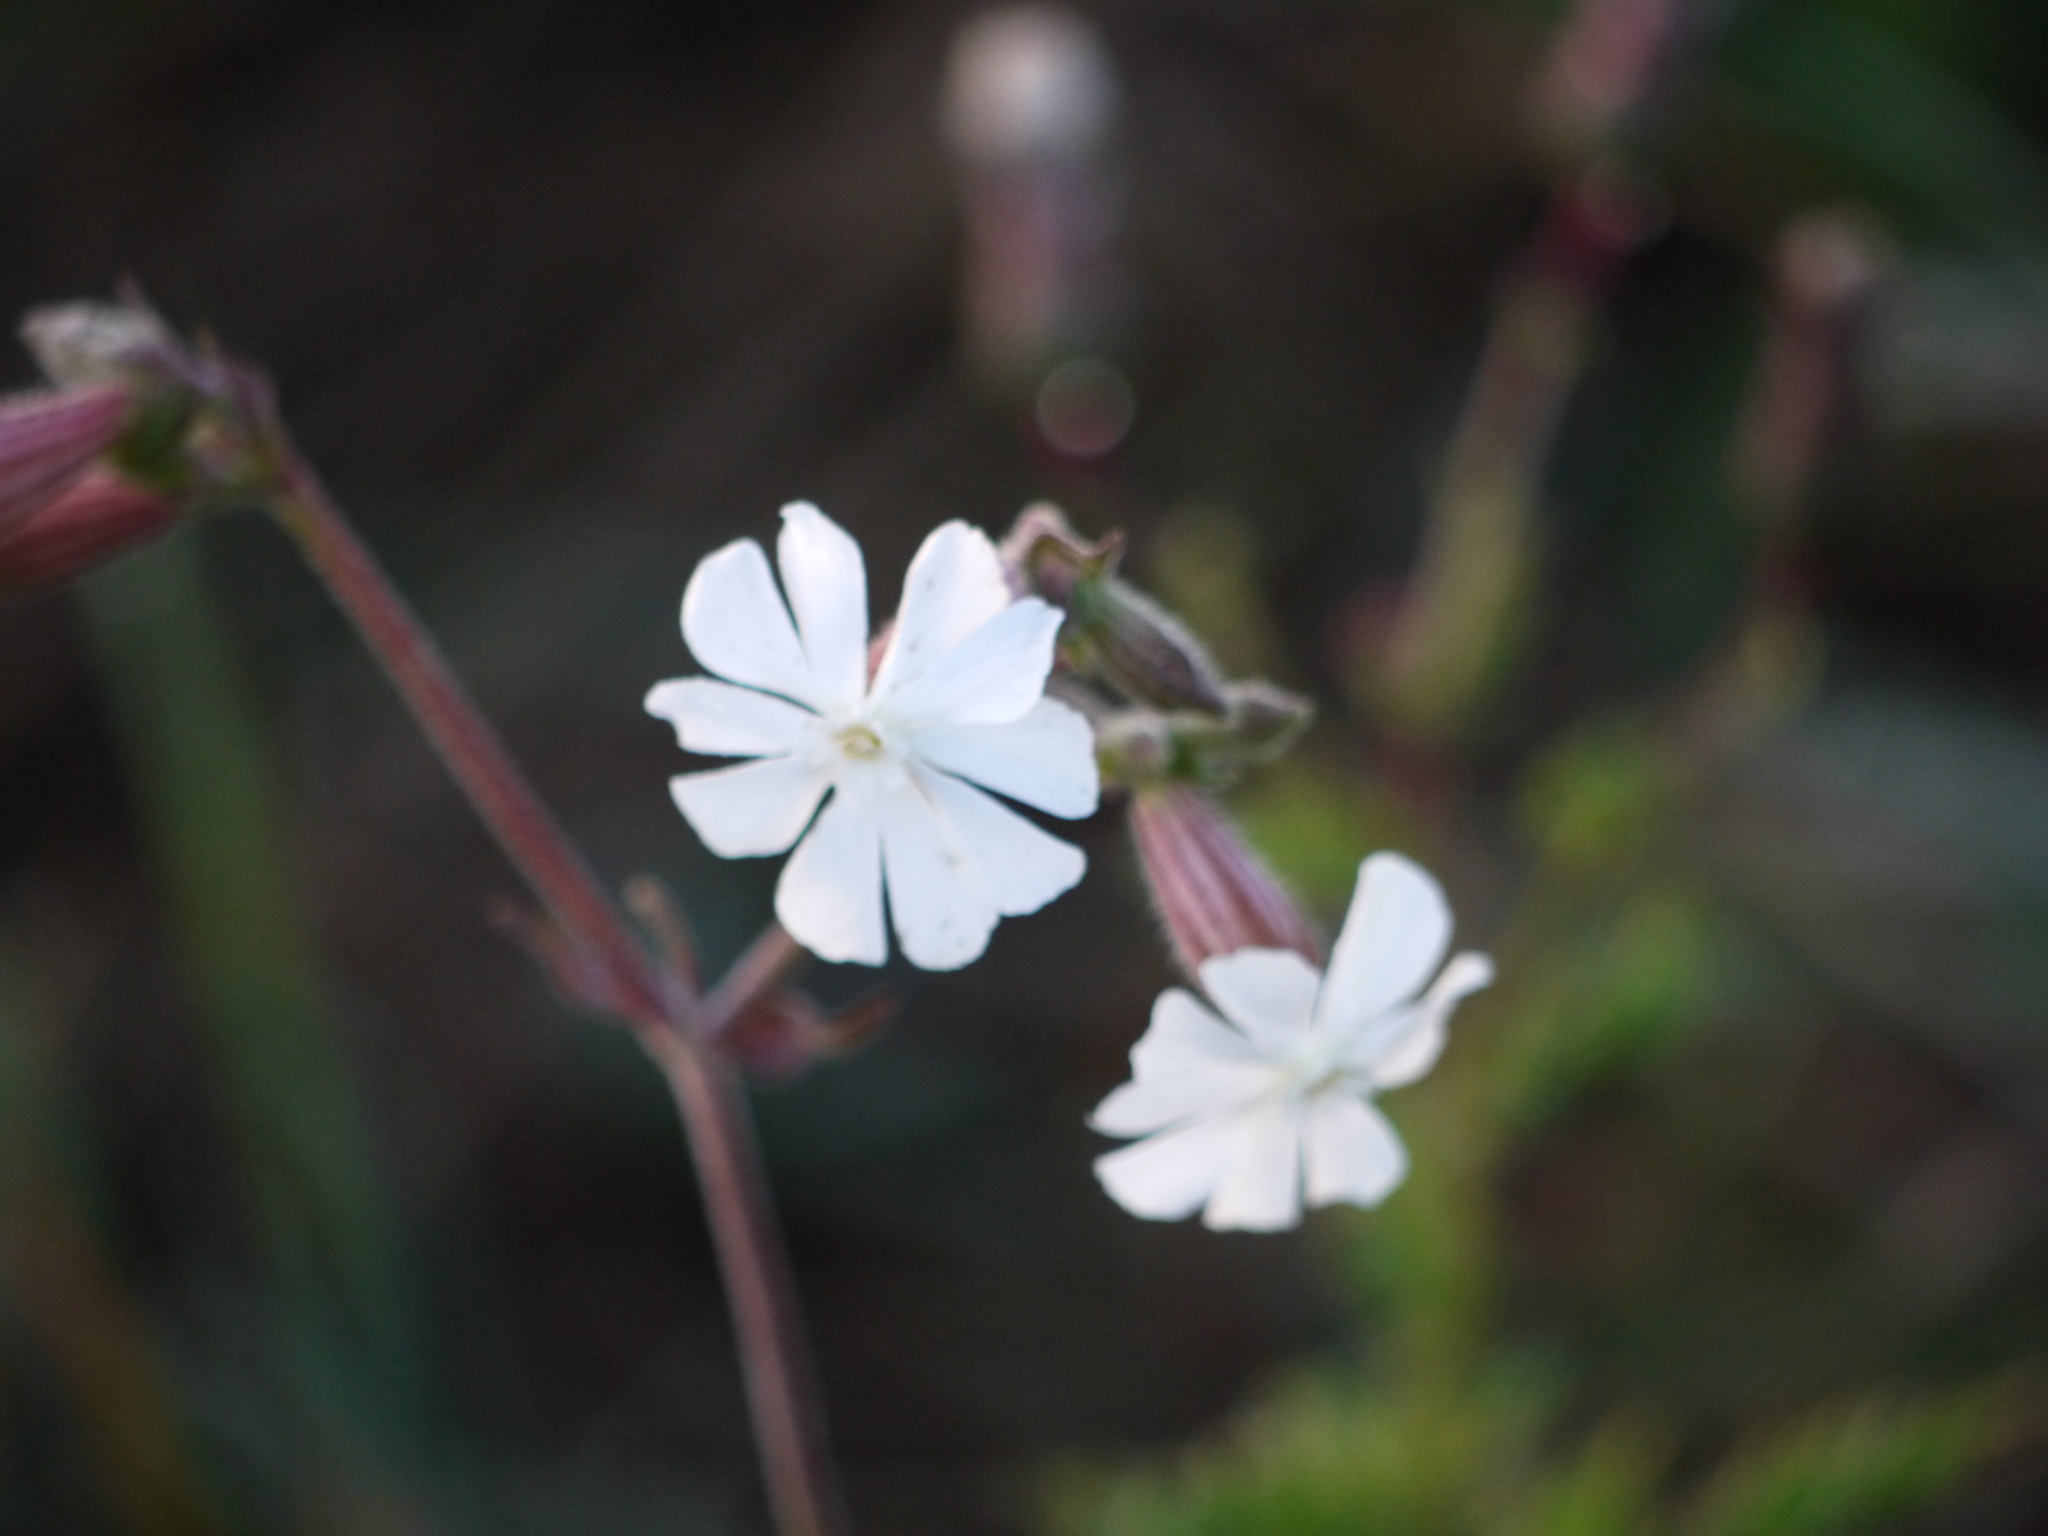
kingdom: Plantae
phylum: Tracheophyta
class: Magnoliopsida
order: Caryophyllales
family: Caryophyllaceae
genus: Silene
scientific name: Silene latifolia
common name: White campion
